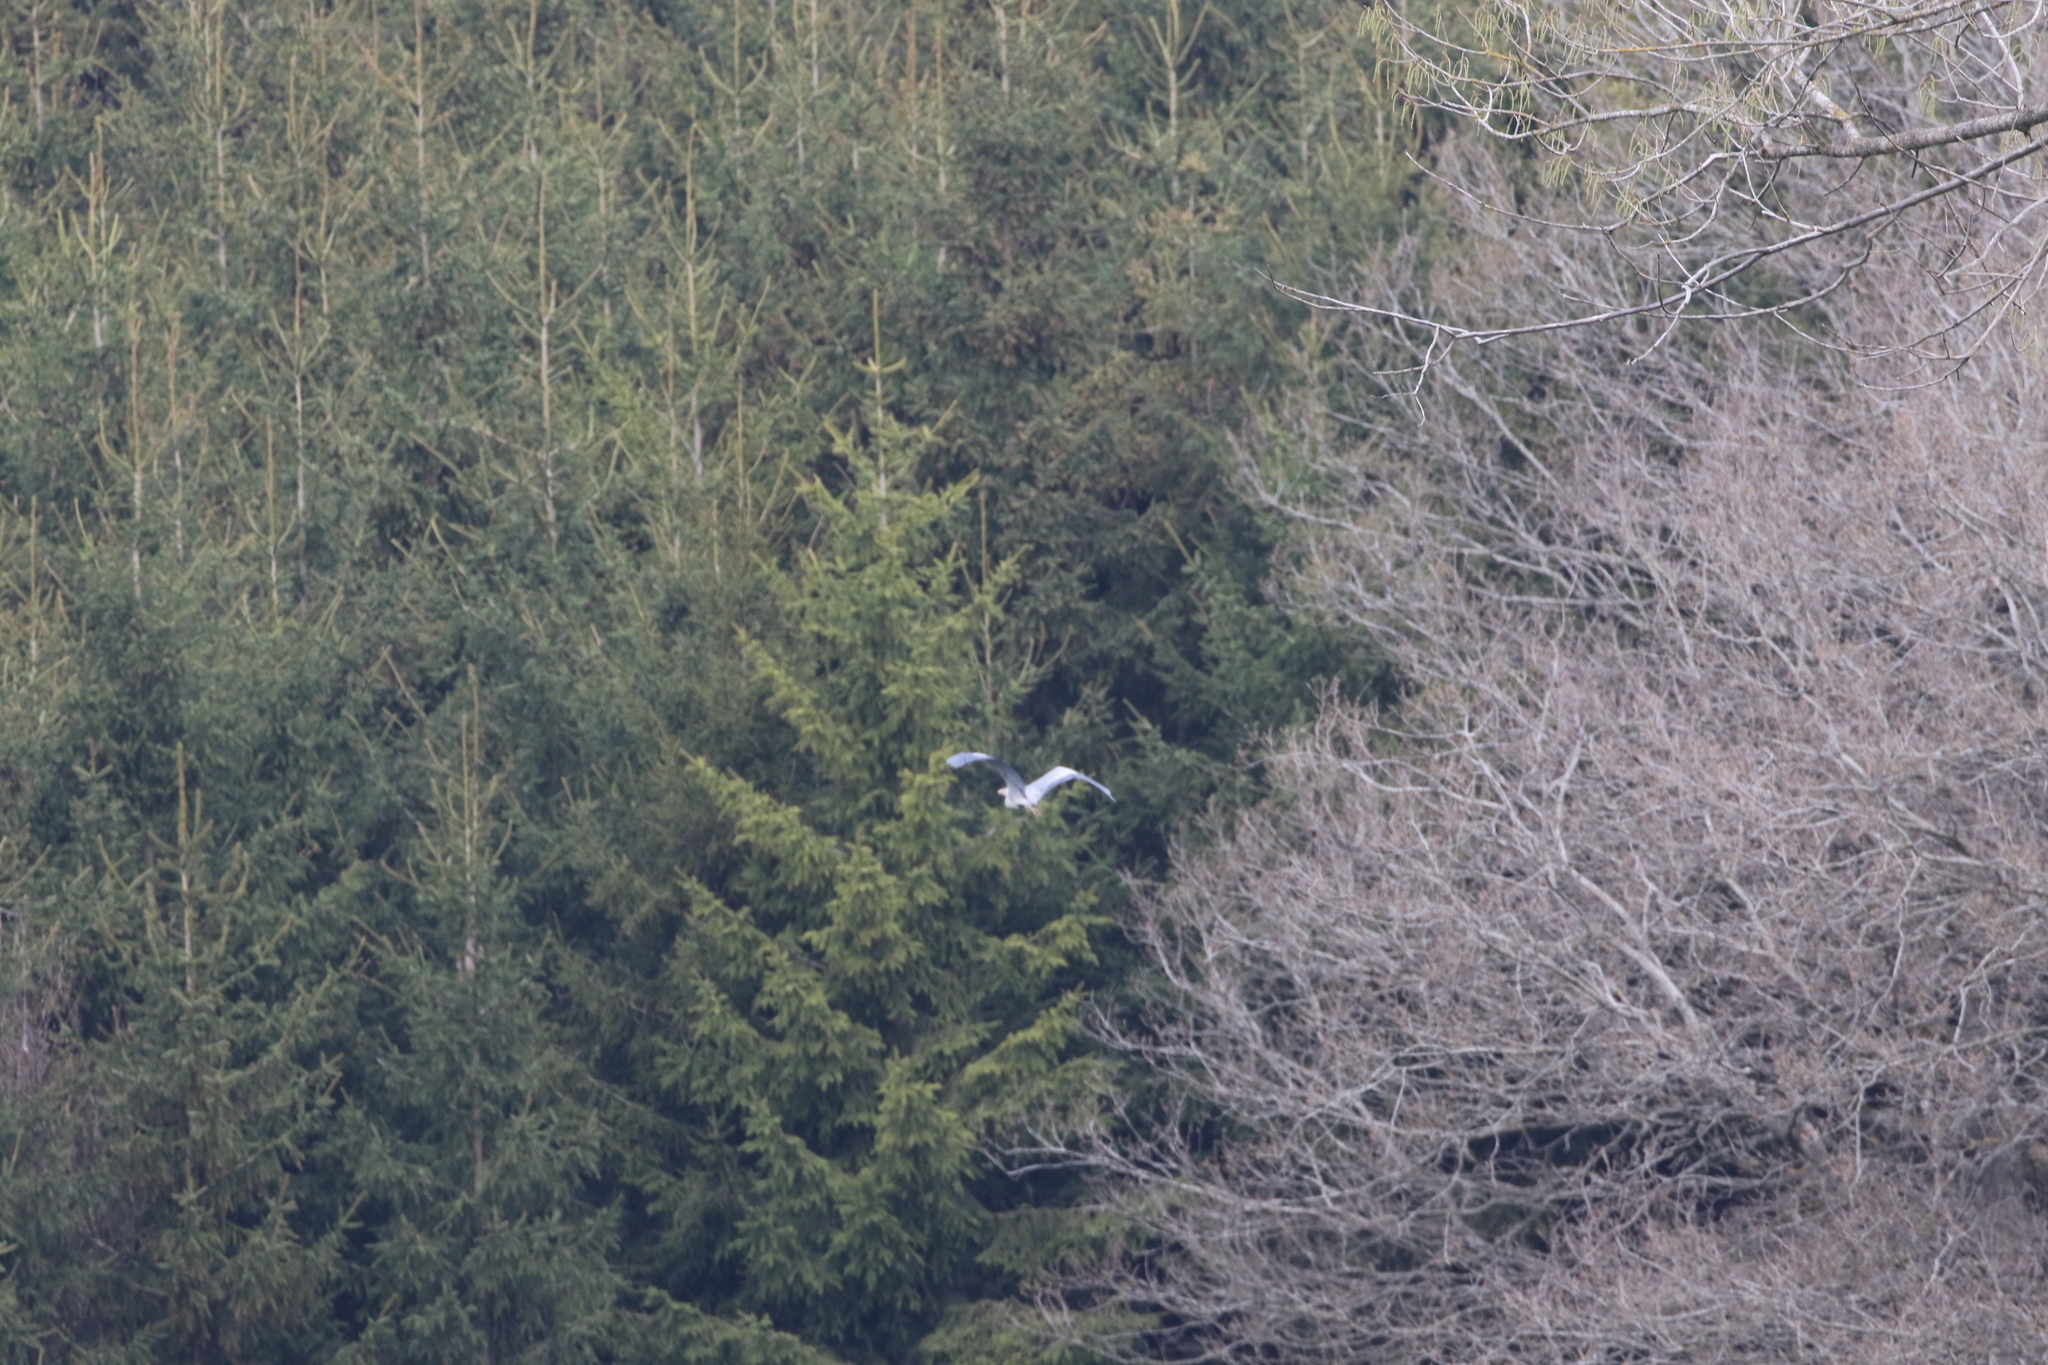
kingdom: Animalia
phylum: Chordata
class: Aves
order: Pelecaniformes
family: Ardeidae
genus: Ardea
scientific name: Ardea cinerea
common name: Grey heron
